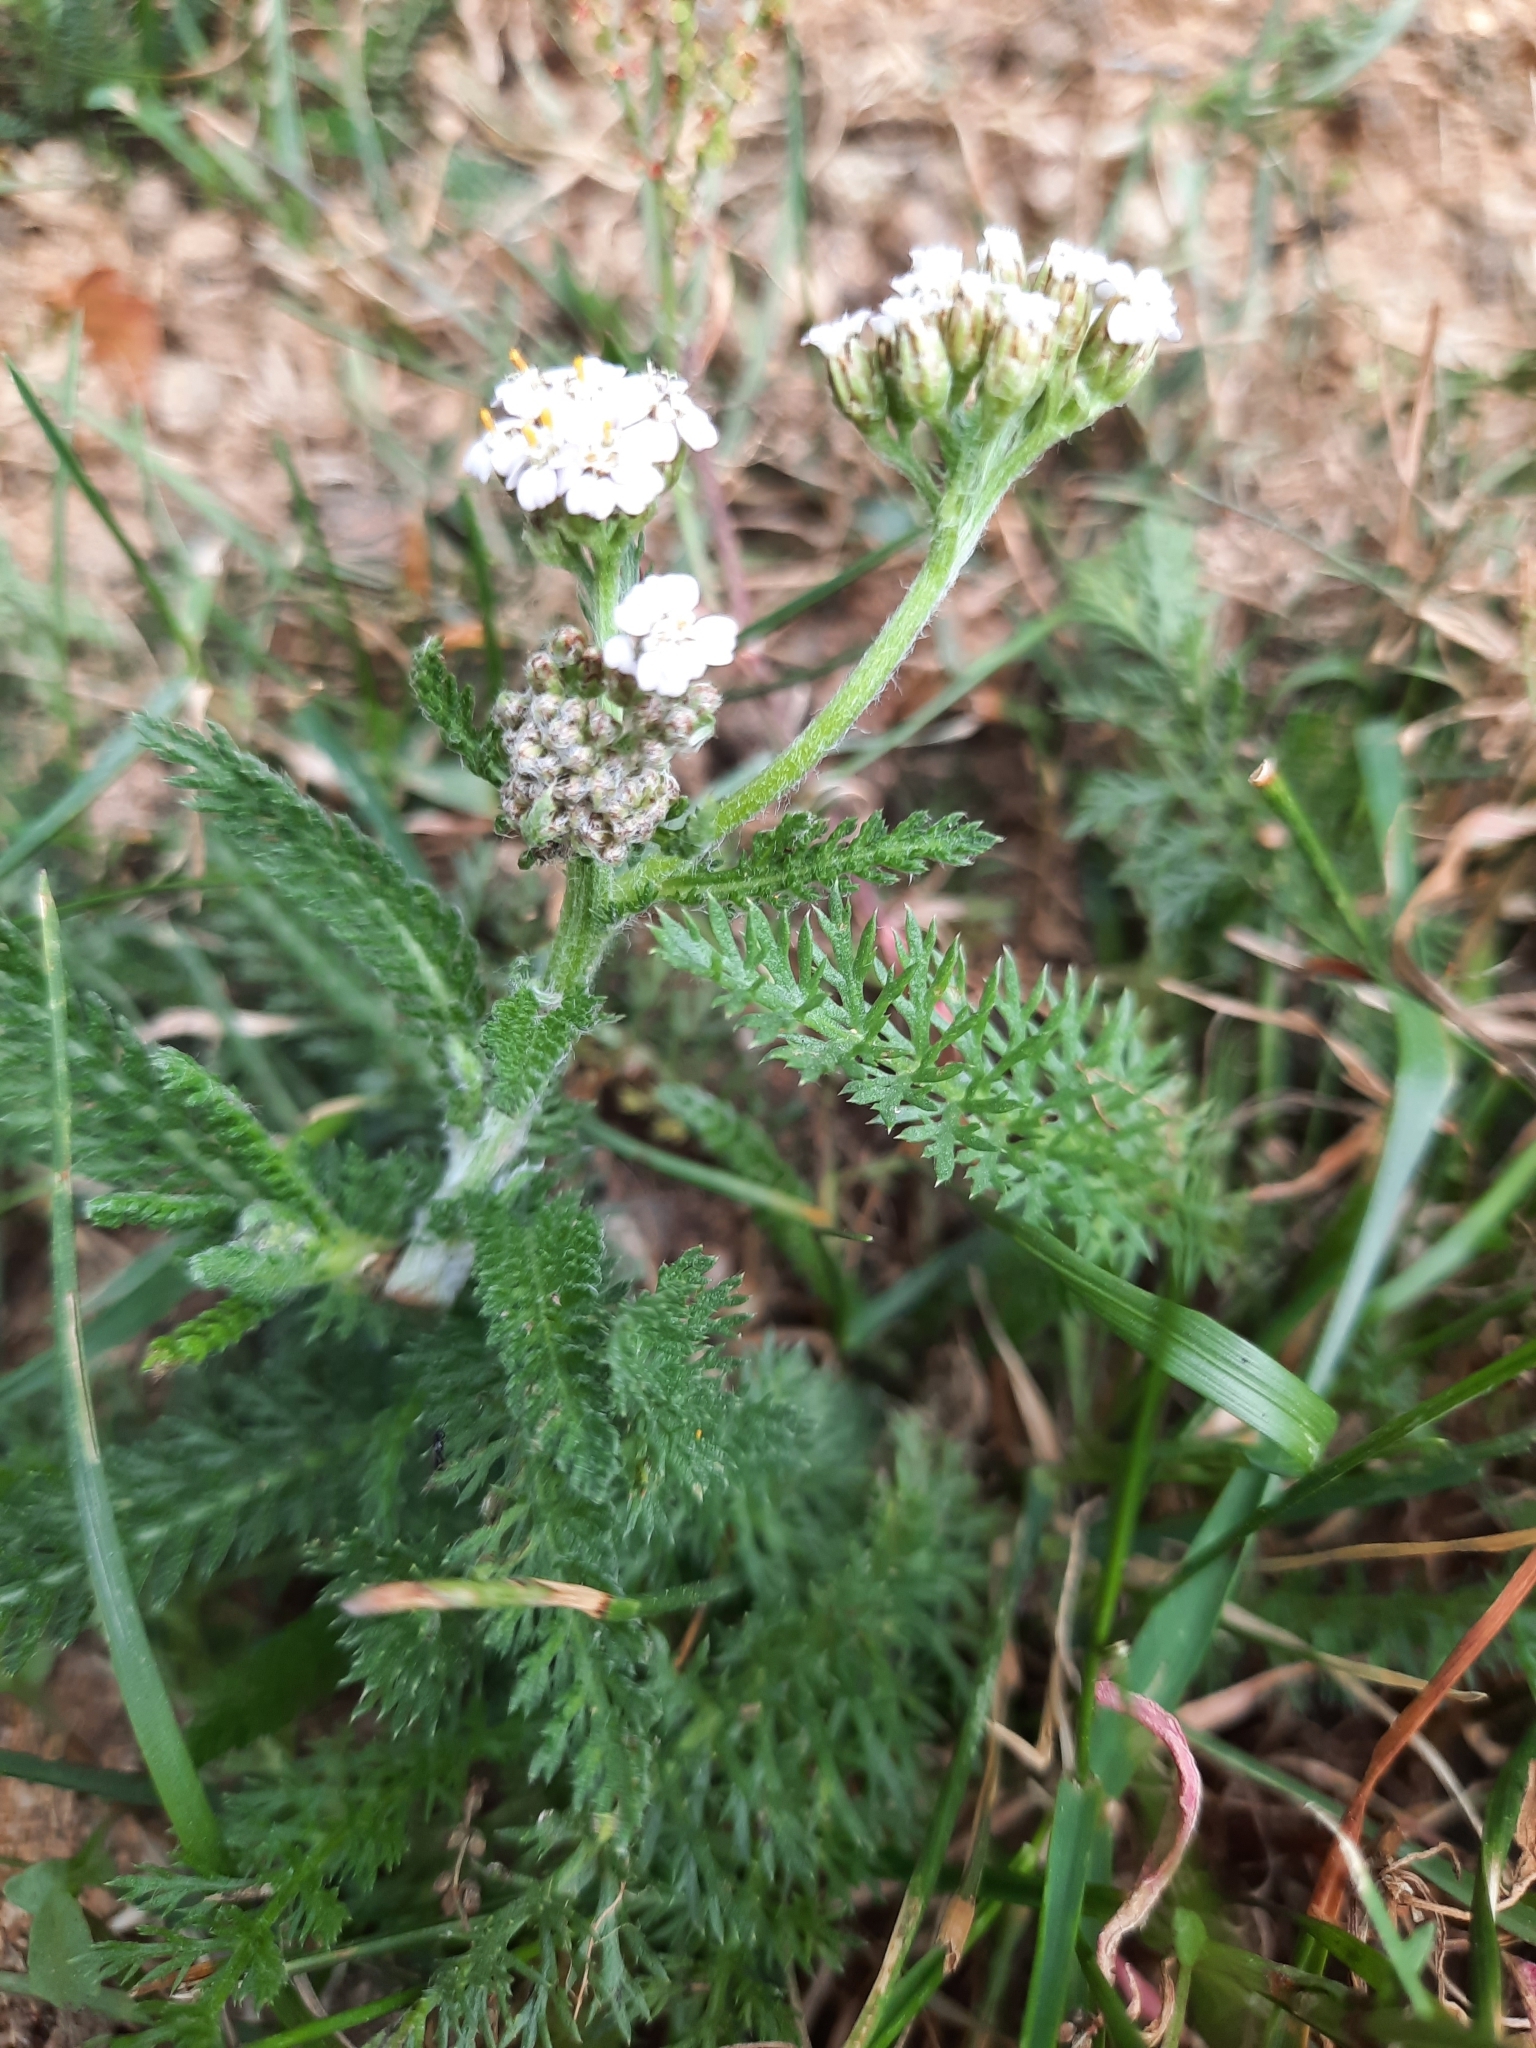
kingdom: Plantae
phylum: Tracheophyta
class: Magnoliopsida
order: Asterales
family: Asteraceae
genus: Achillea
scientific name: Achillea millefolium
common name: Yarrow
